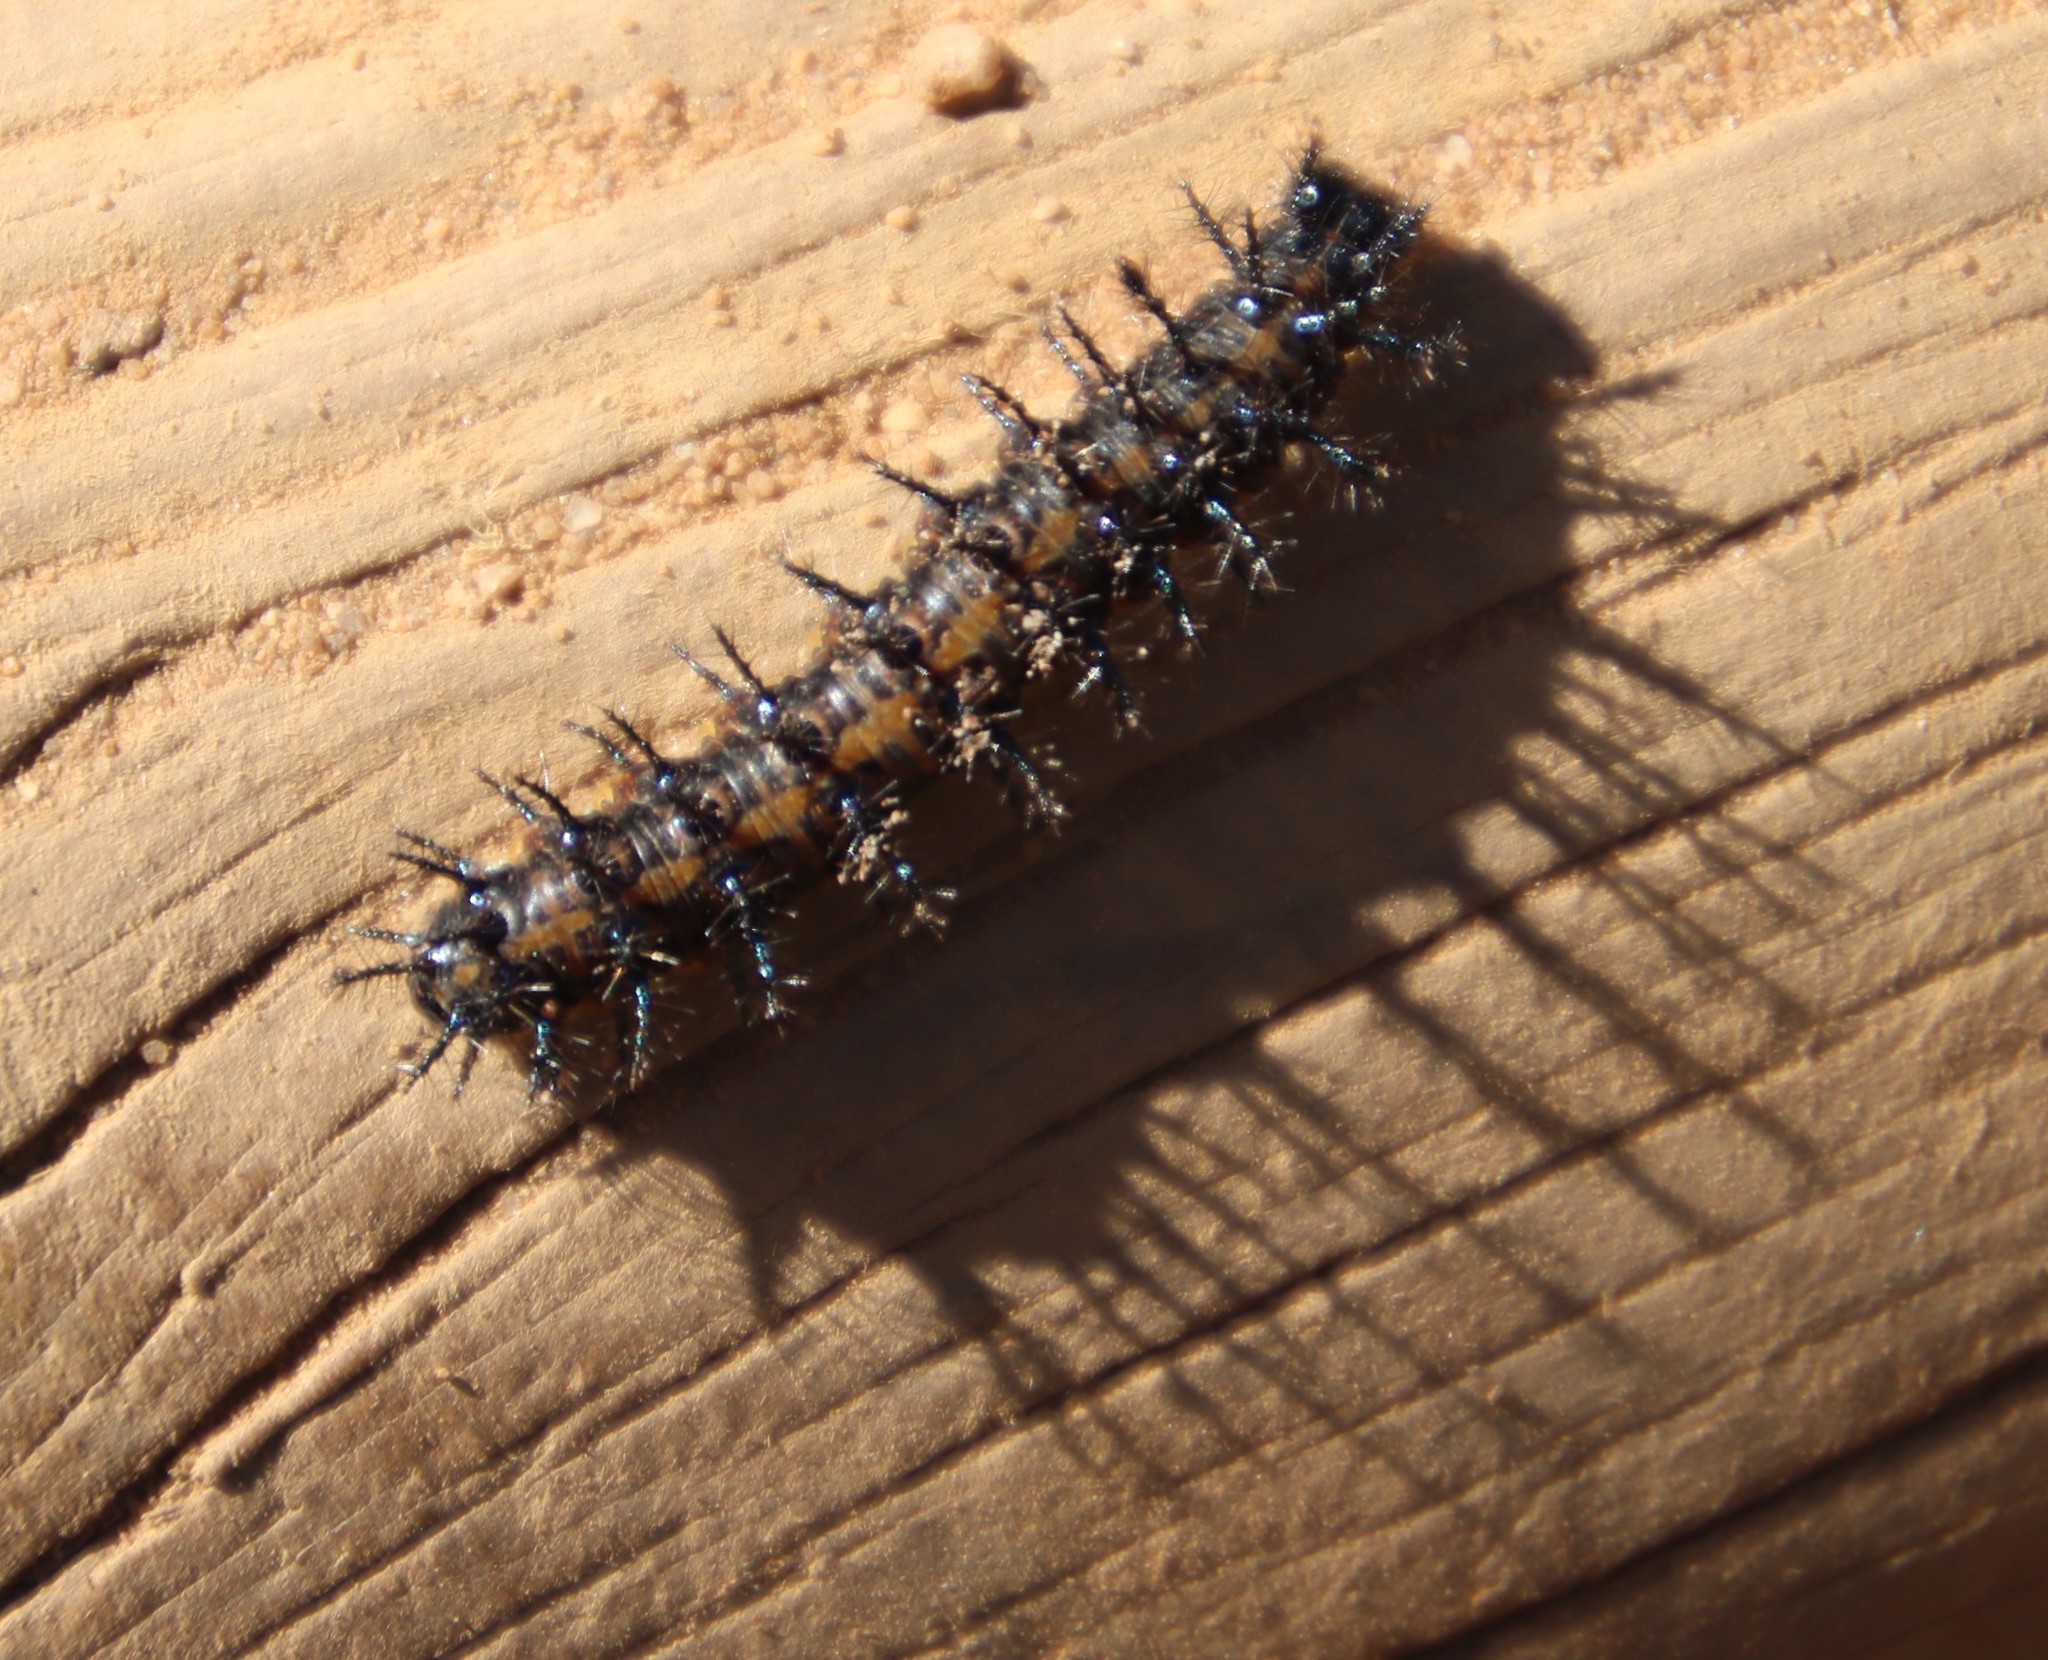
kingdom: Animalia
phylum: Arthropoda
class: Insecta
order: Lepidoptera
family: Nymphalidae
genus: Acraea
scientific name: Acraea horta
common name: Garden acraea
